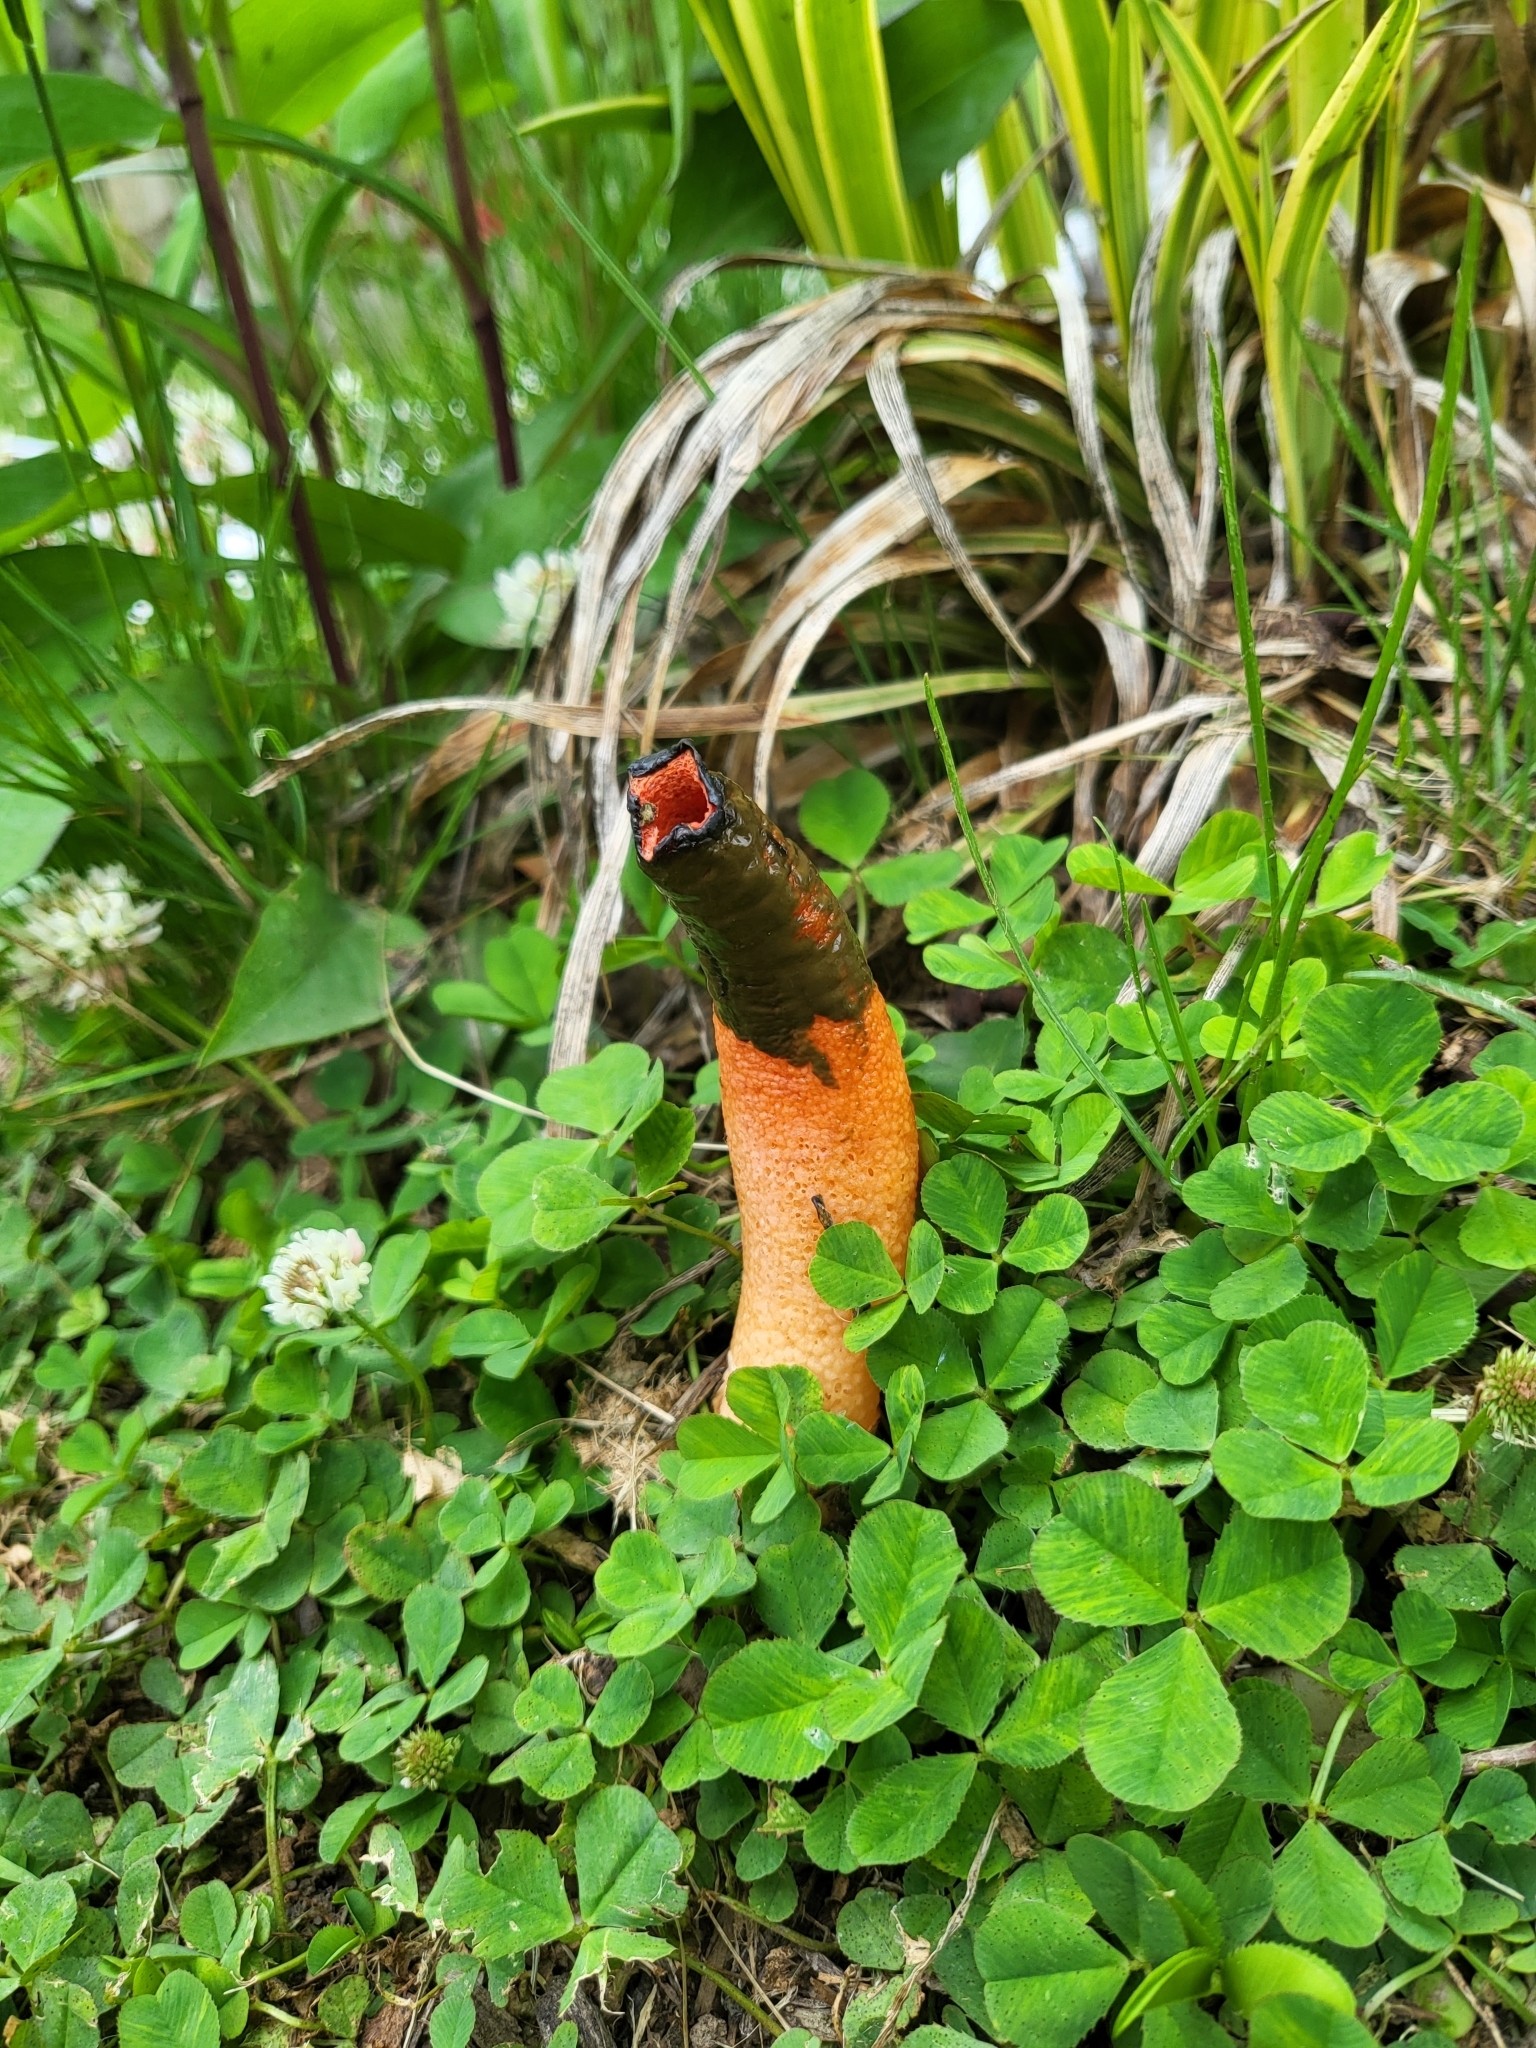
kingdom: Fungi
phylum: Basidiomycota
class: Agaricomycetes
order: Phallales
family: Phallaceae
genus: Mutinus
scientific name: Mutinus elegans
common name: Devil's dipstick
